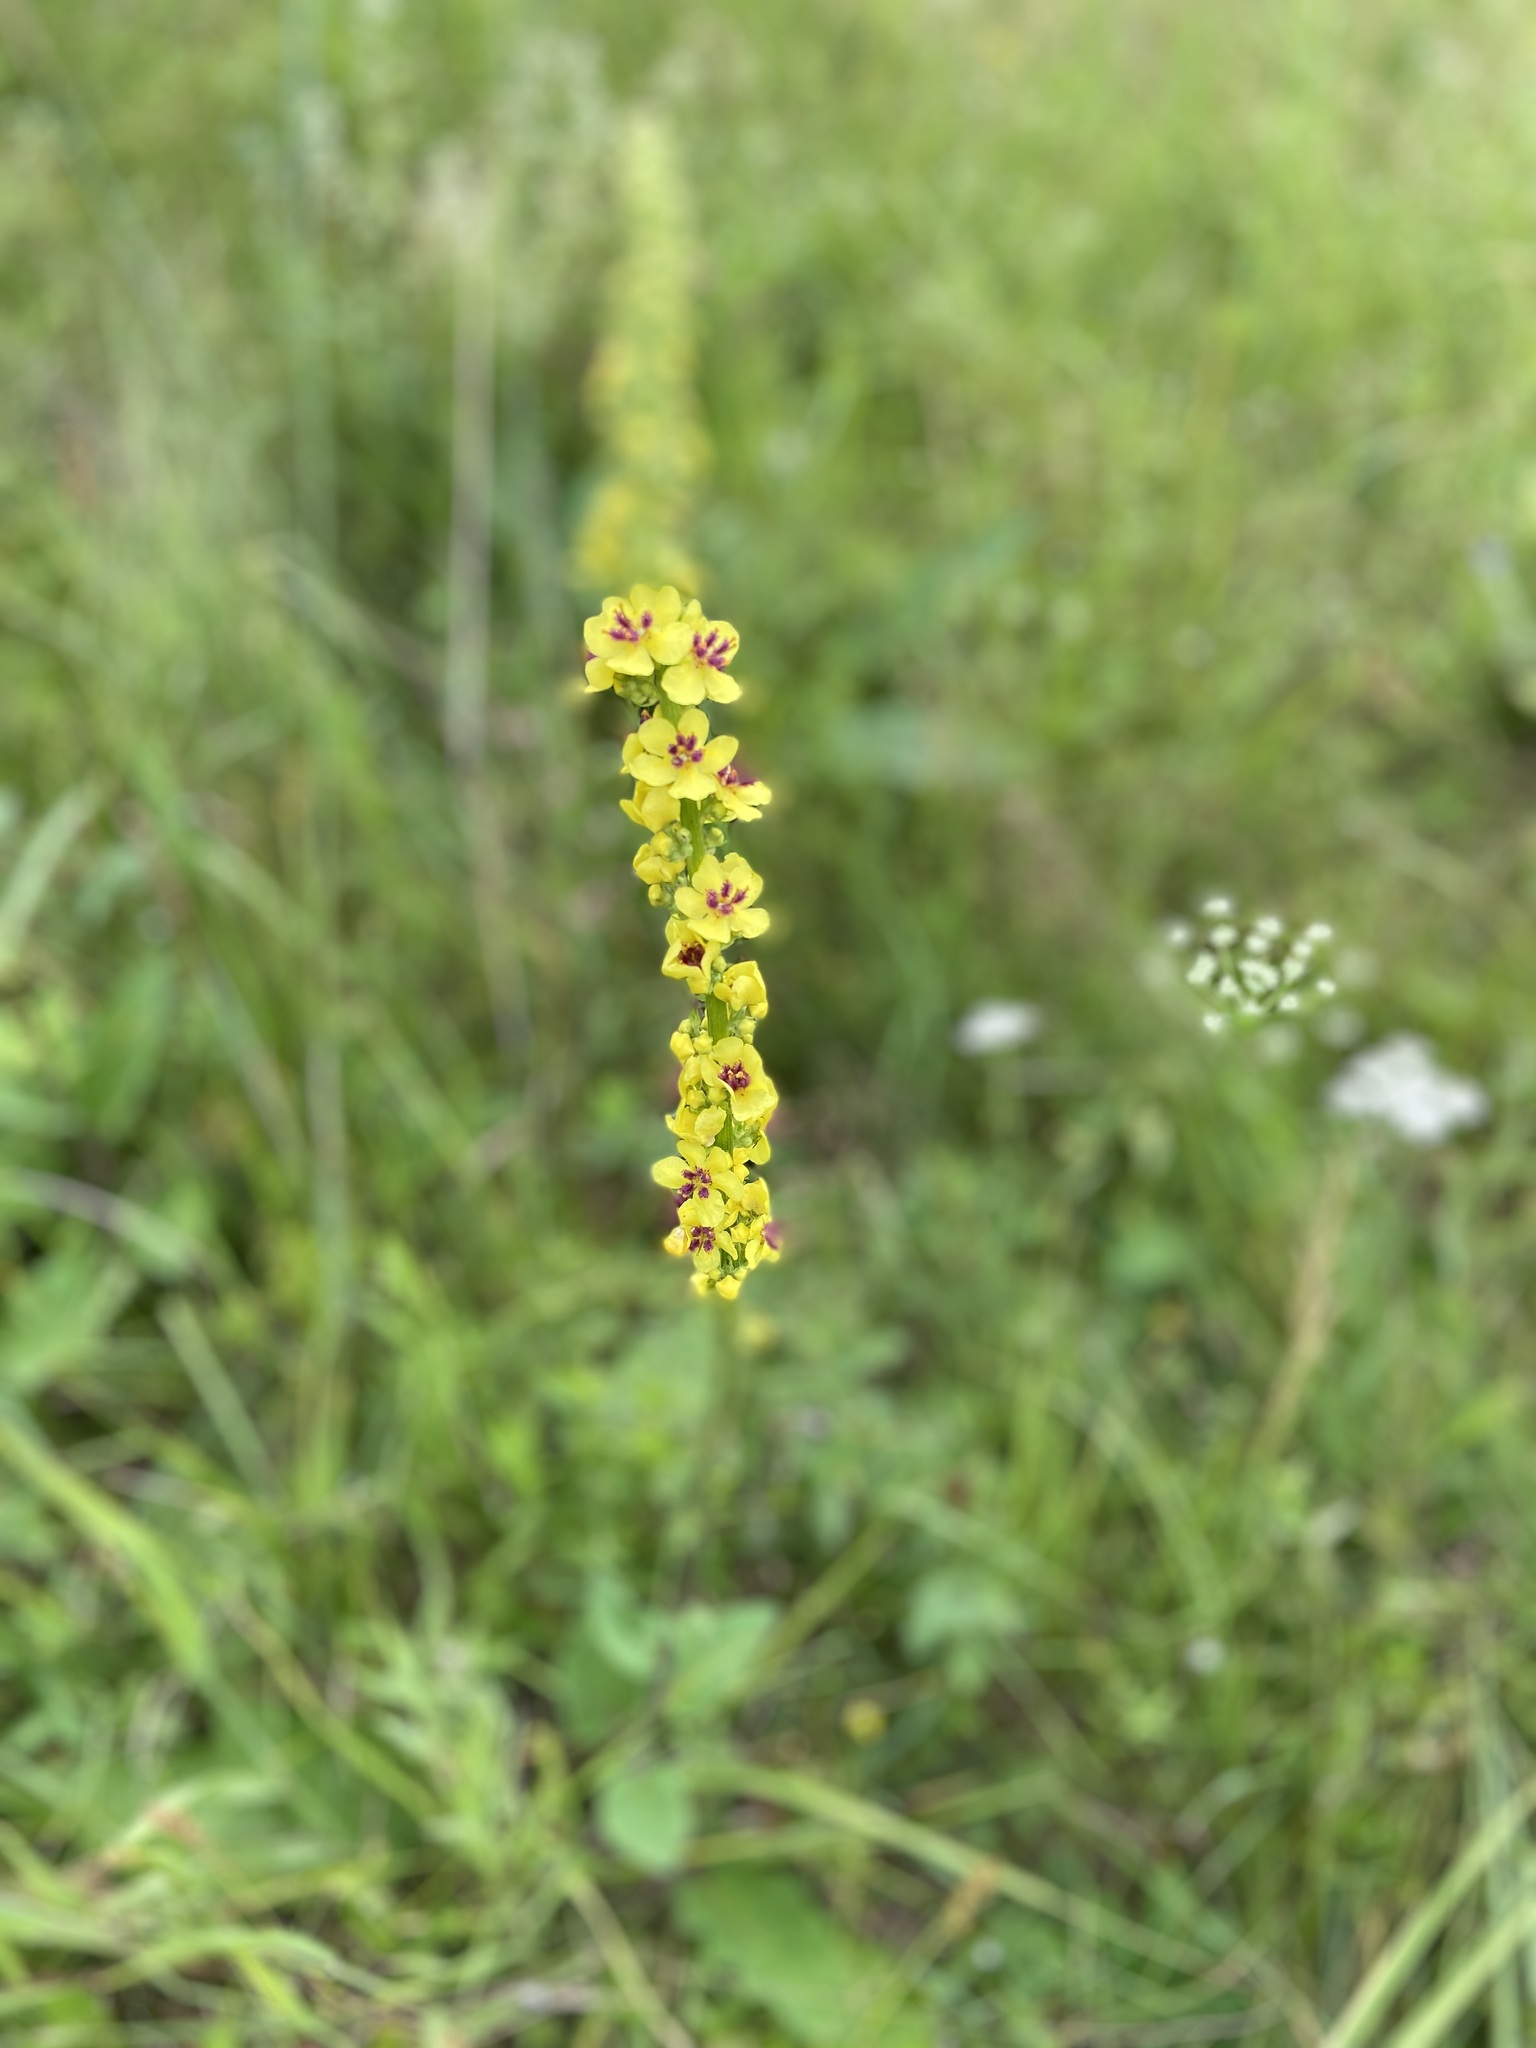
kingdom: Plantae
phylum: Tracheophyta
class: Magnoliopsida
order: Lamiales
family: Scrophulariaceae
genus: Verbascum
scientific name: Verbascum nigrum
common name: Dark mullein
